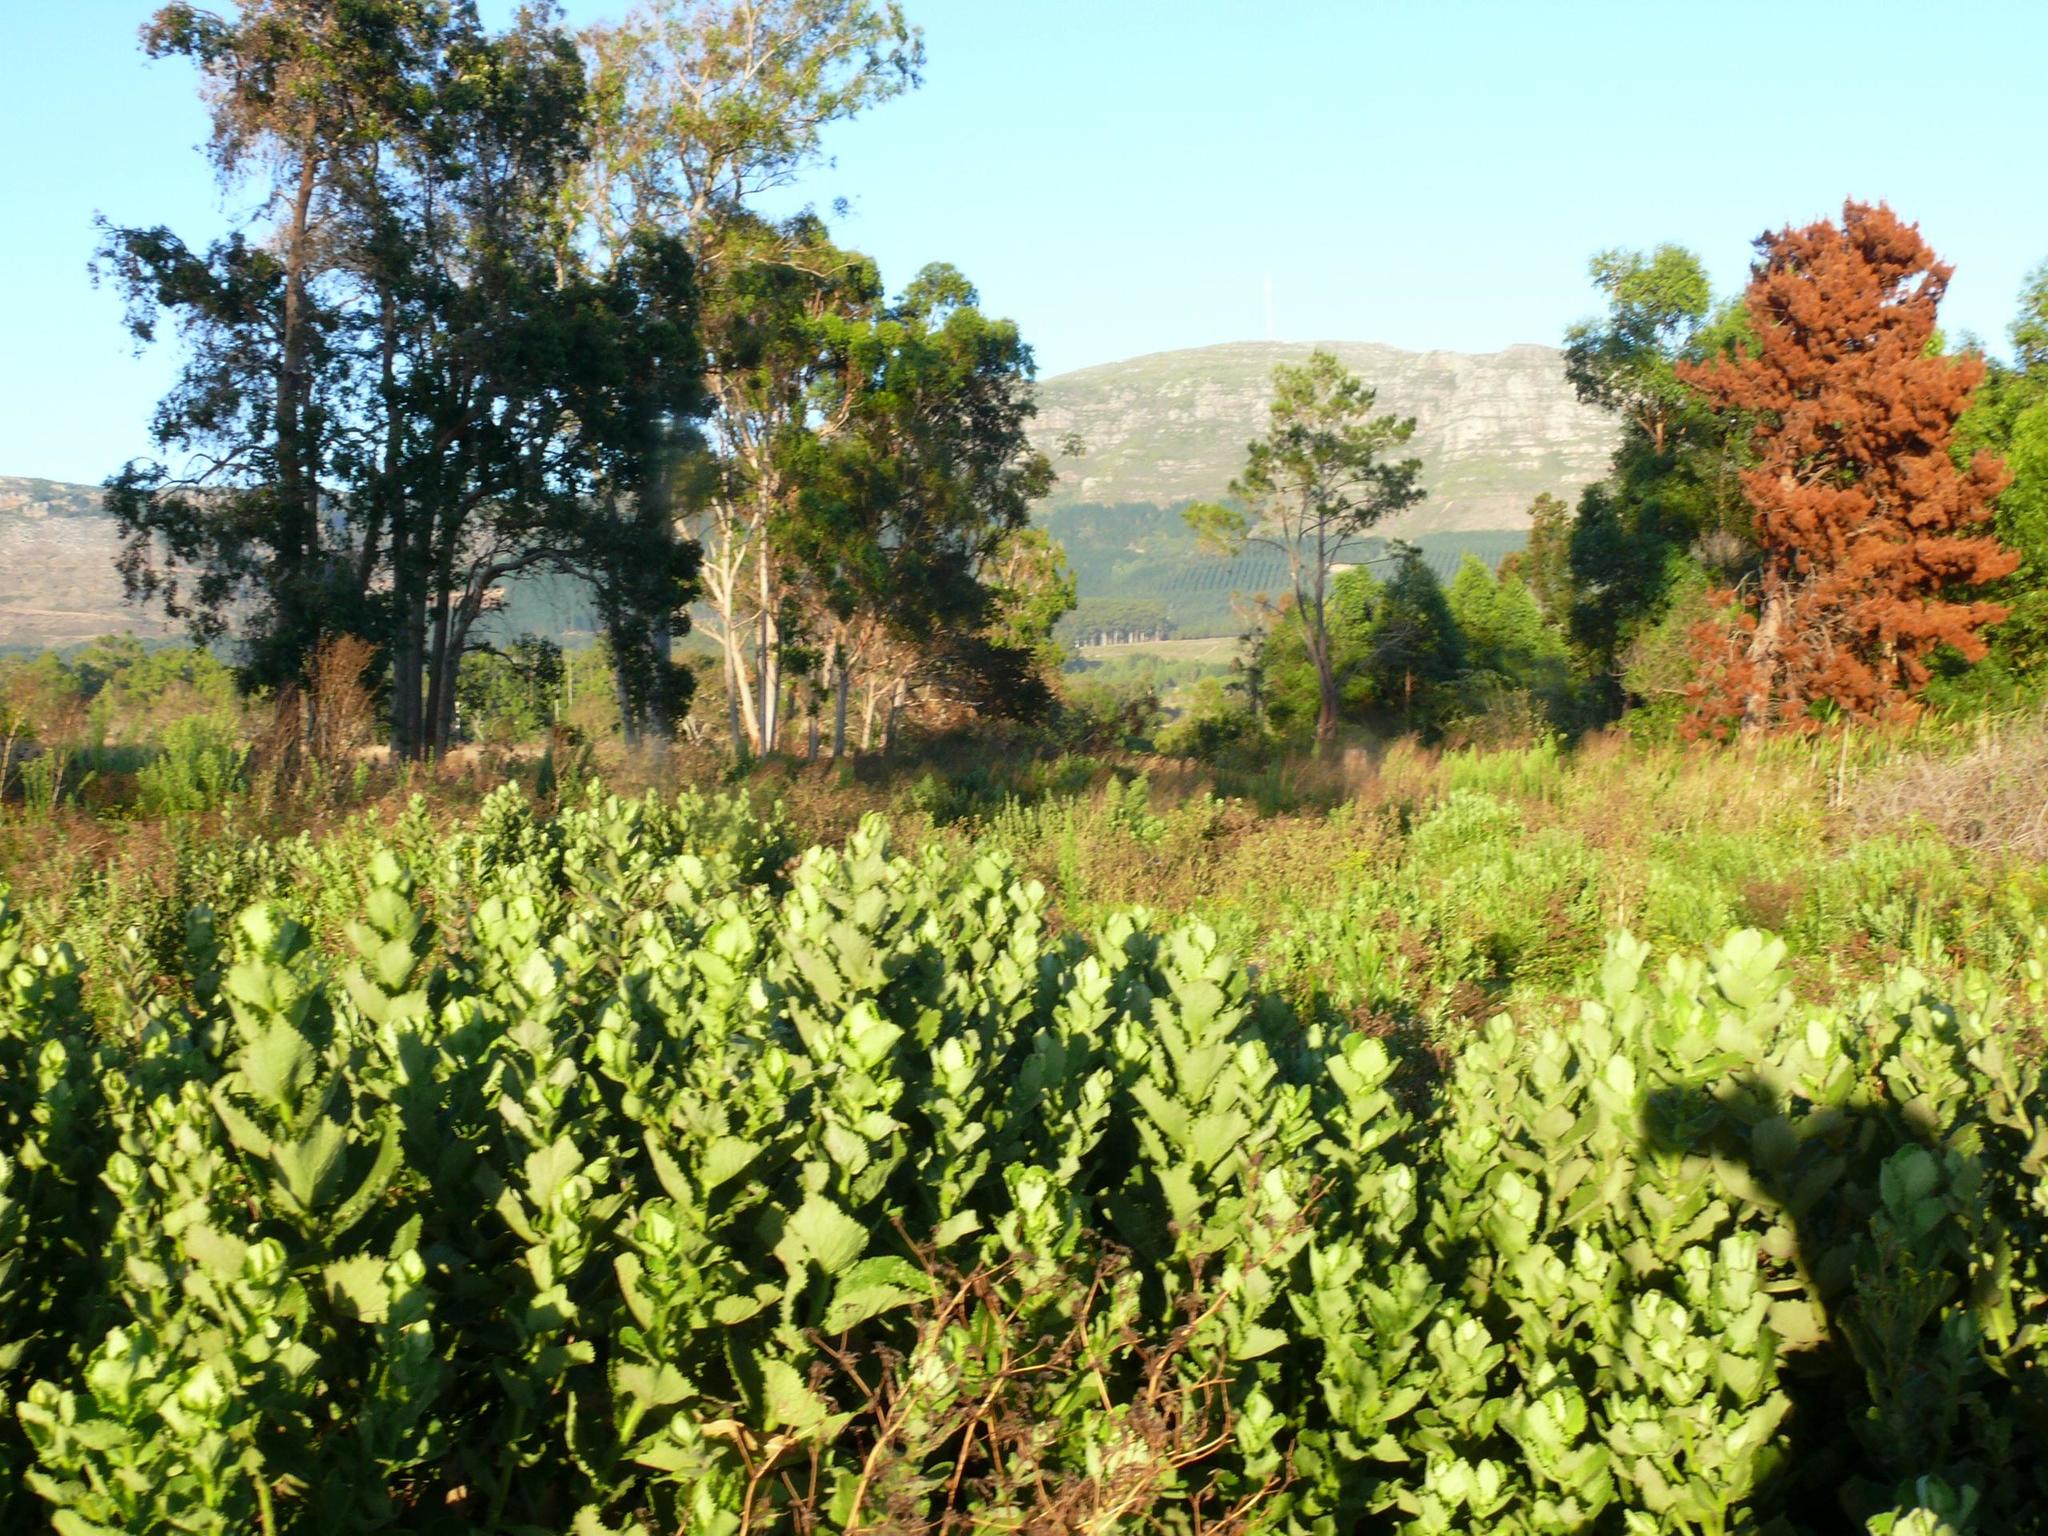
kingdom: Plantae
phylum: Tracheophyta
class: Magnoliopsida
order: Asterales
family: Asteraceae
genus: Osteospermum
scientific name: Osteospermum moniliferum
